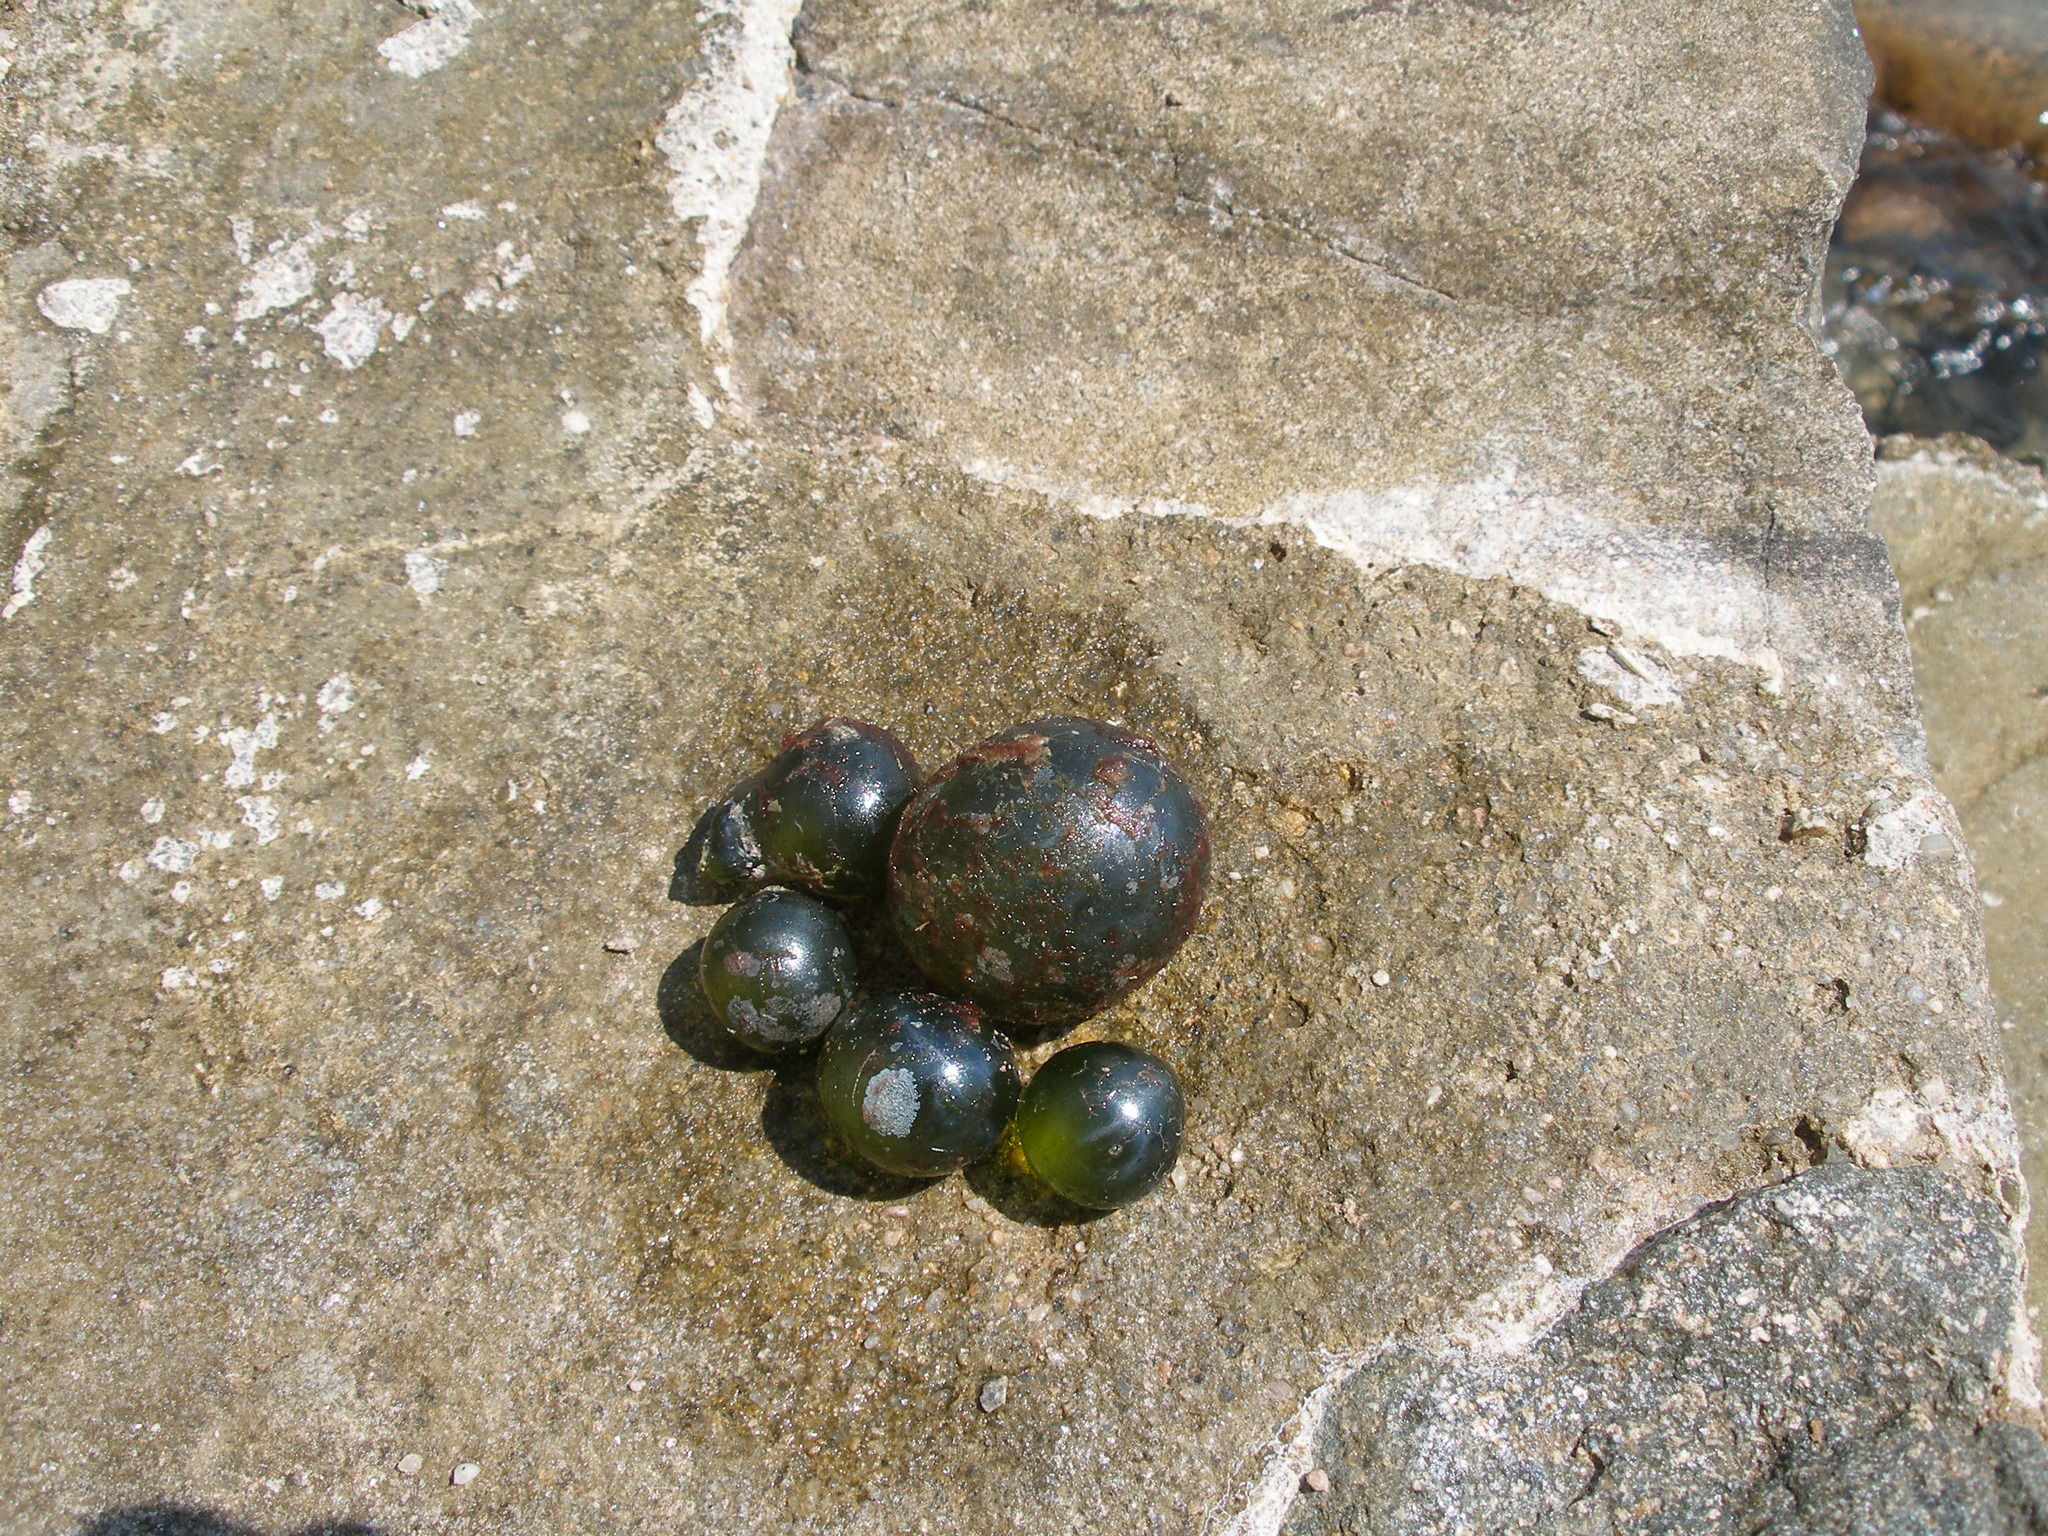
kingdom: Plantae
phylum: Chlorophyta
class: Ulvophyceae
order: Siphonocladales
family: Valoniaceae
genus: Valonia
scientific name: Valonia ventricosa
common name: Sea pearl
